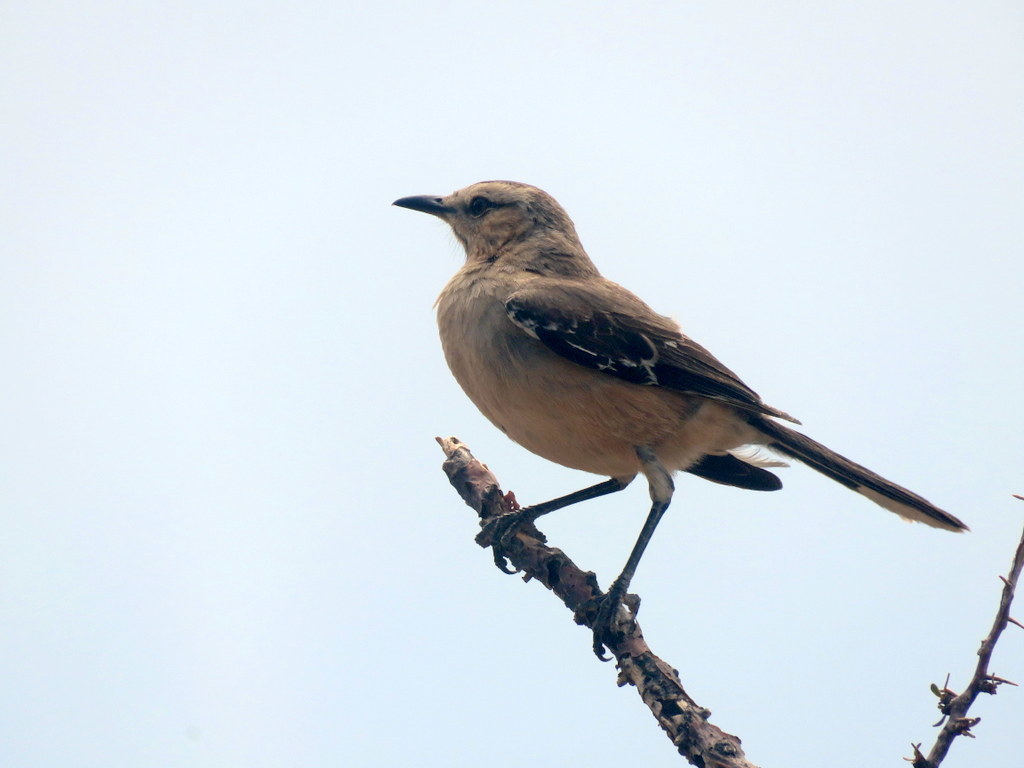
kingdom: Animalia
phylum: Chordata
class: Aves
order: Passeriformes
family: Mimidae
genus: Mimus
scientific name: Mimus patagonicus
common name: Patagonian mockingbird
